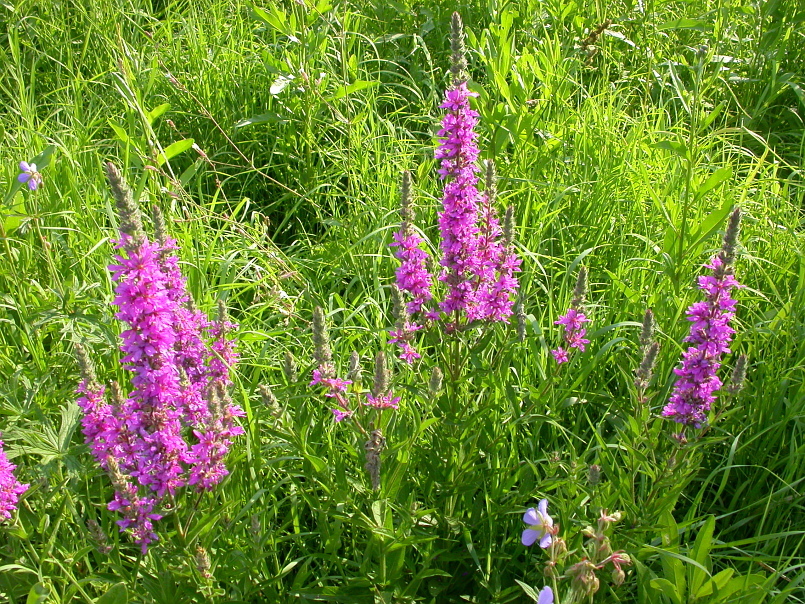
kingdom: Plantae
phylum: Tracheophyta
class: Magnoliopsida
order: Myrtales
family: Lythraceae
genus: Lythrum
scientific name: Lythrum salicaria
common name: Purple loosestrife
